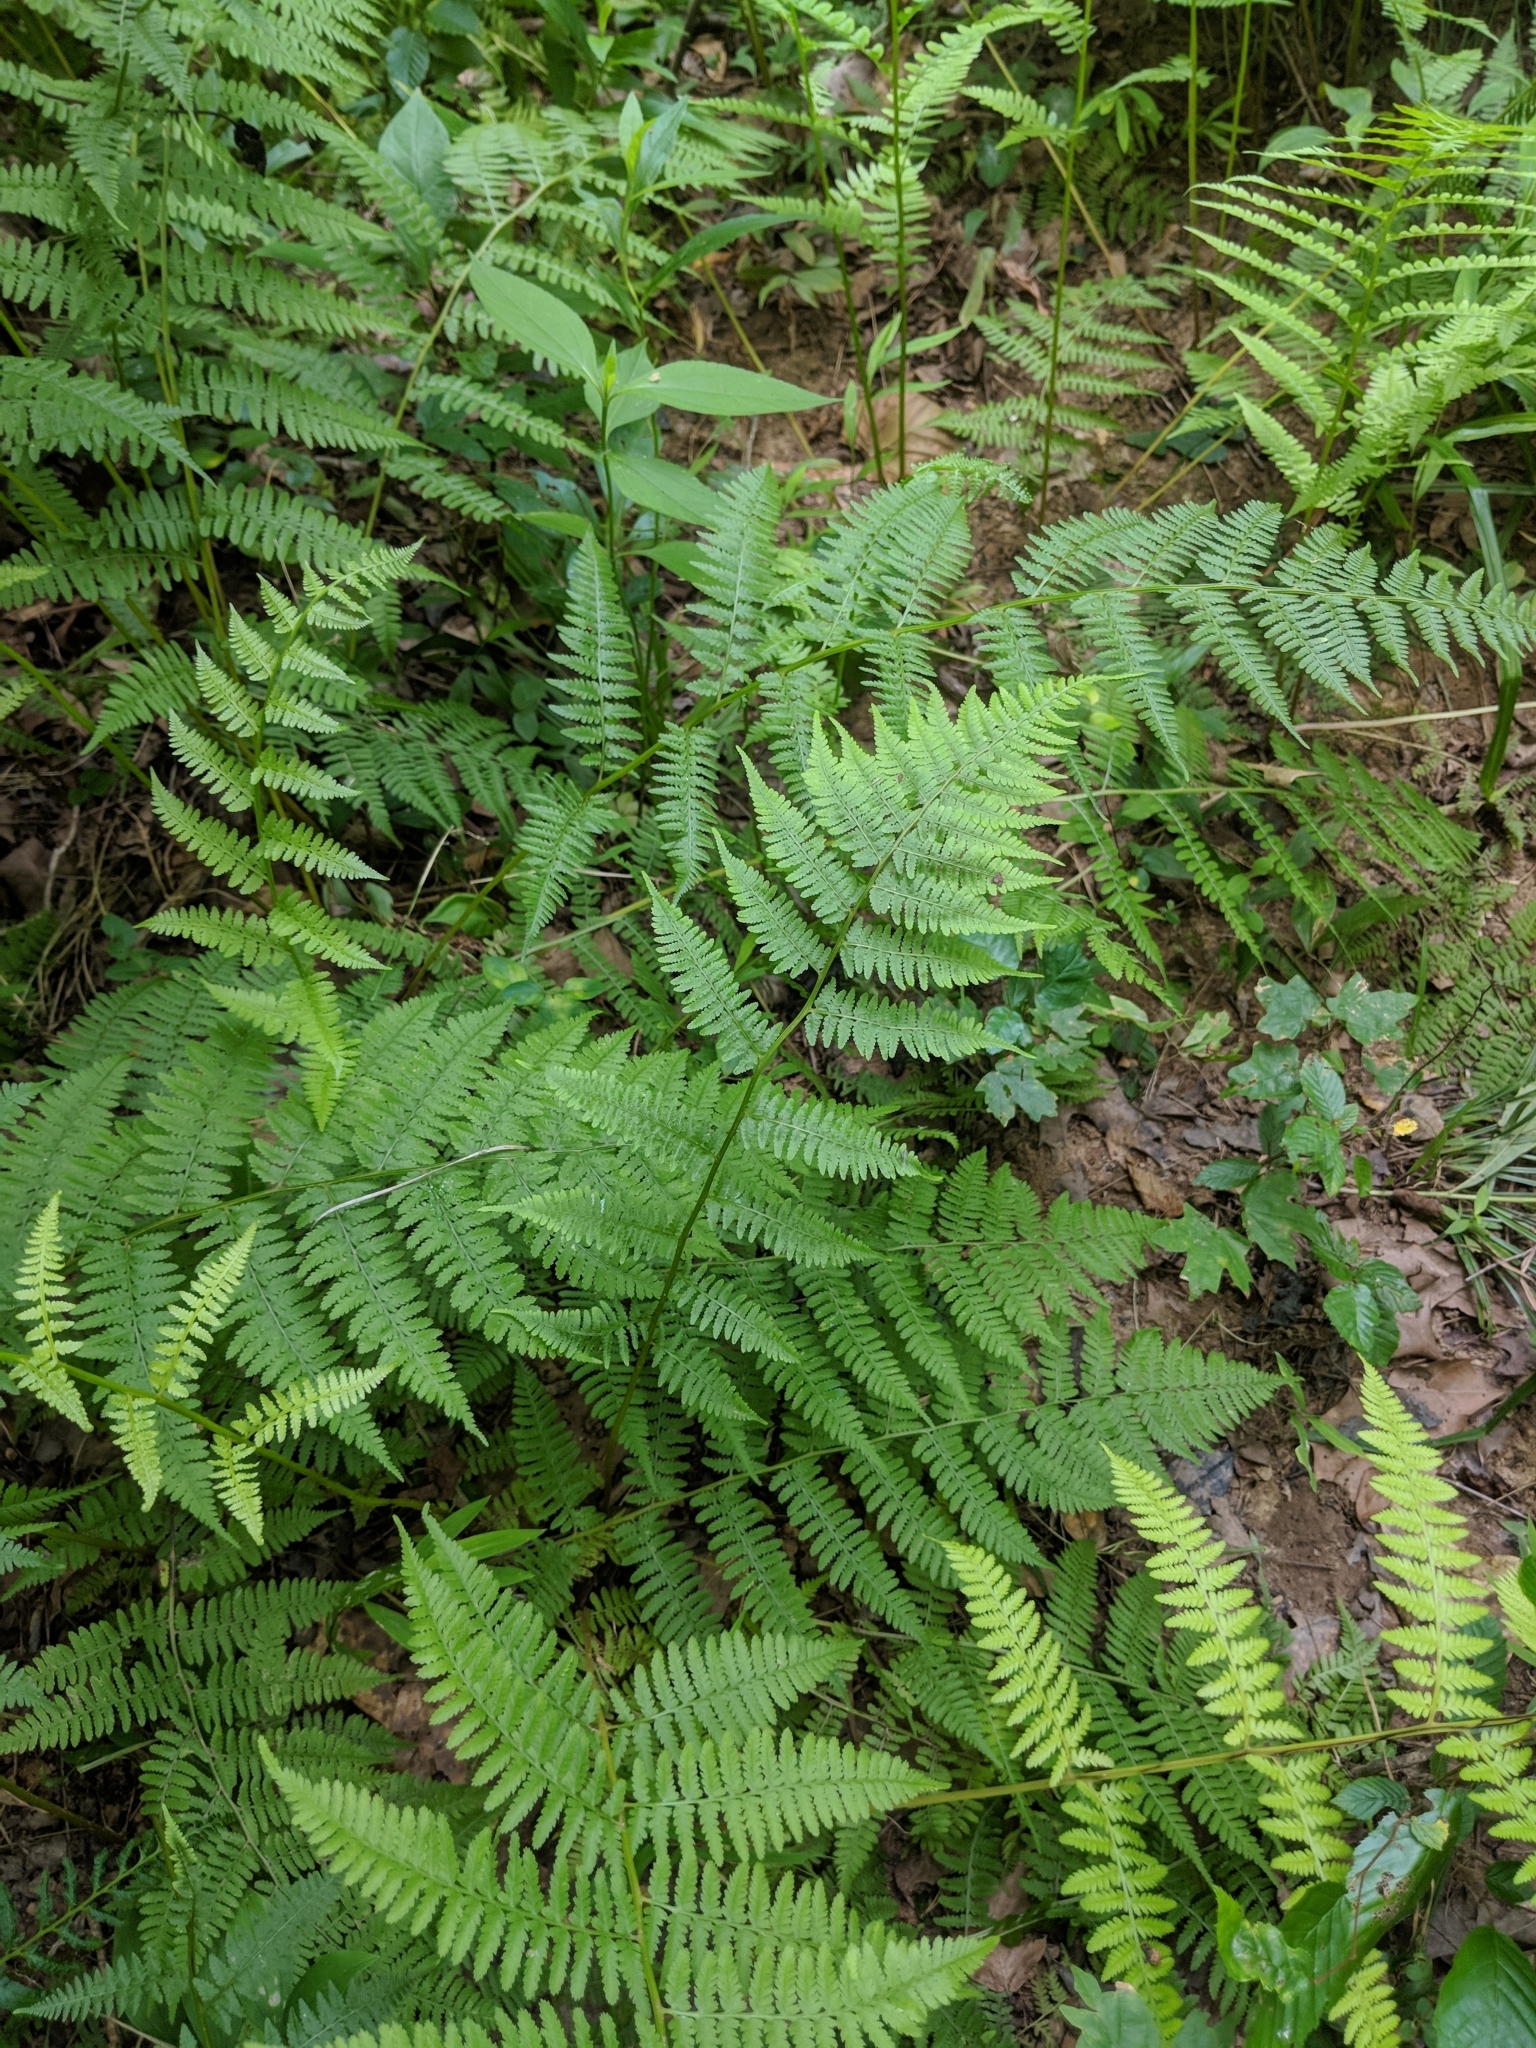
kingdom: Plantae
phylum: Tracheophyta
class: Polypodiopsida
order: Polypodiales
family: Athyriaceae
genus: Athyrium
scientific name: Athyrium asplenioides
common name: Southern lady fern
